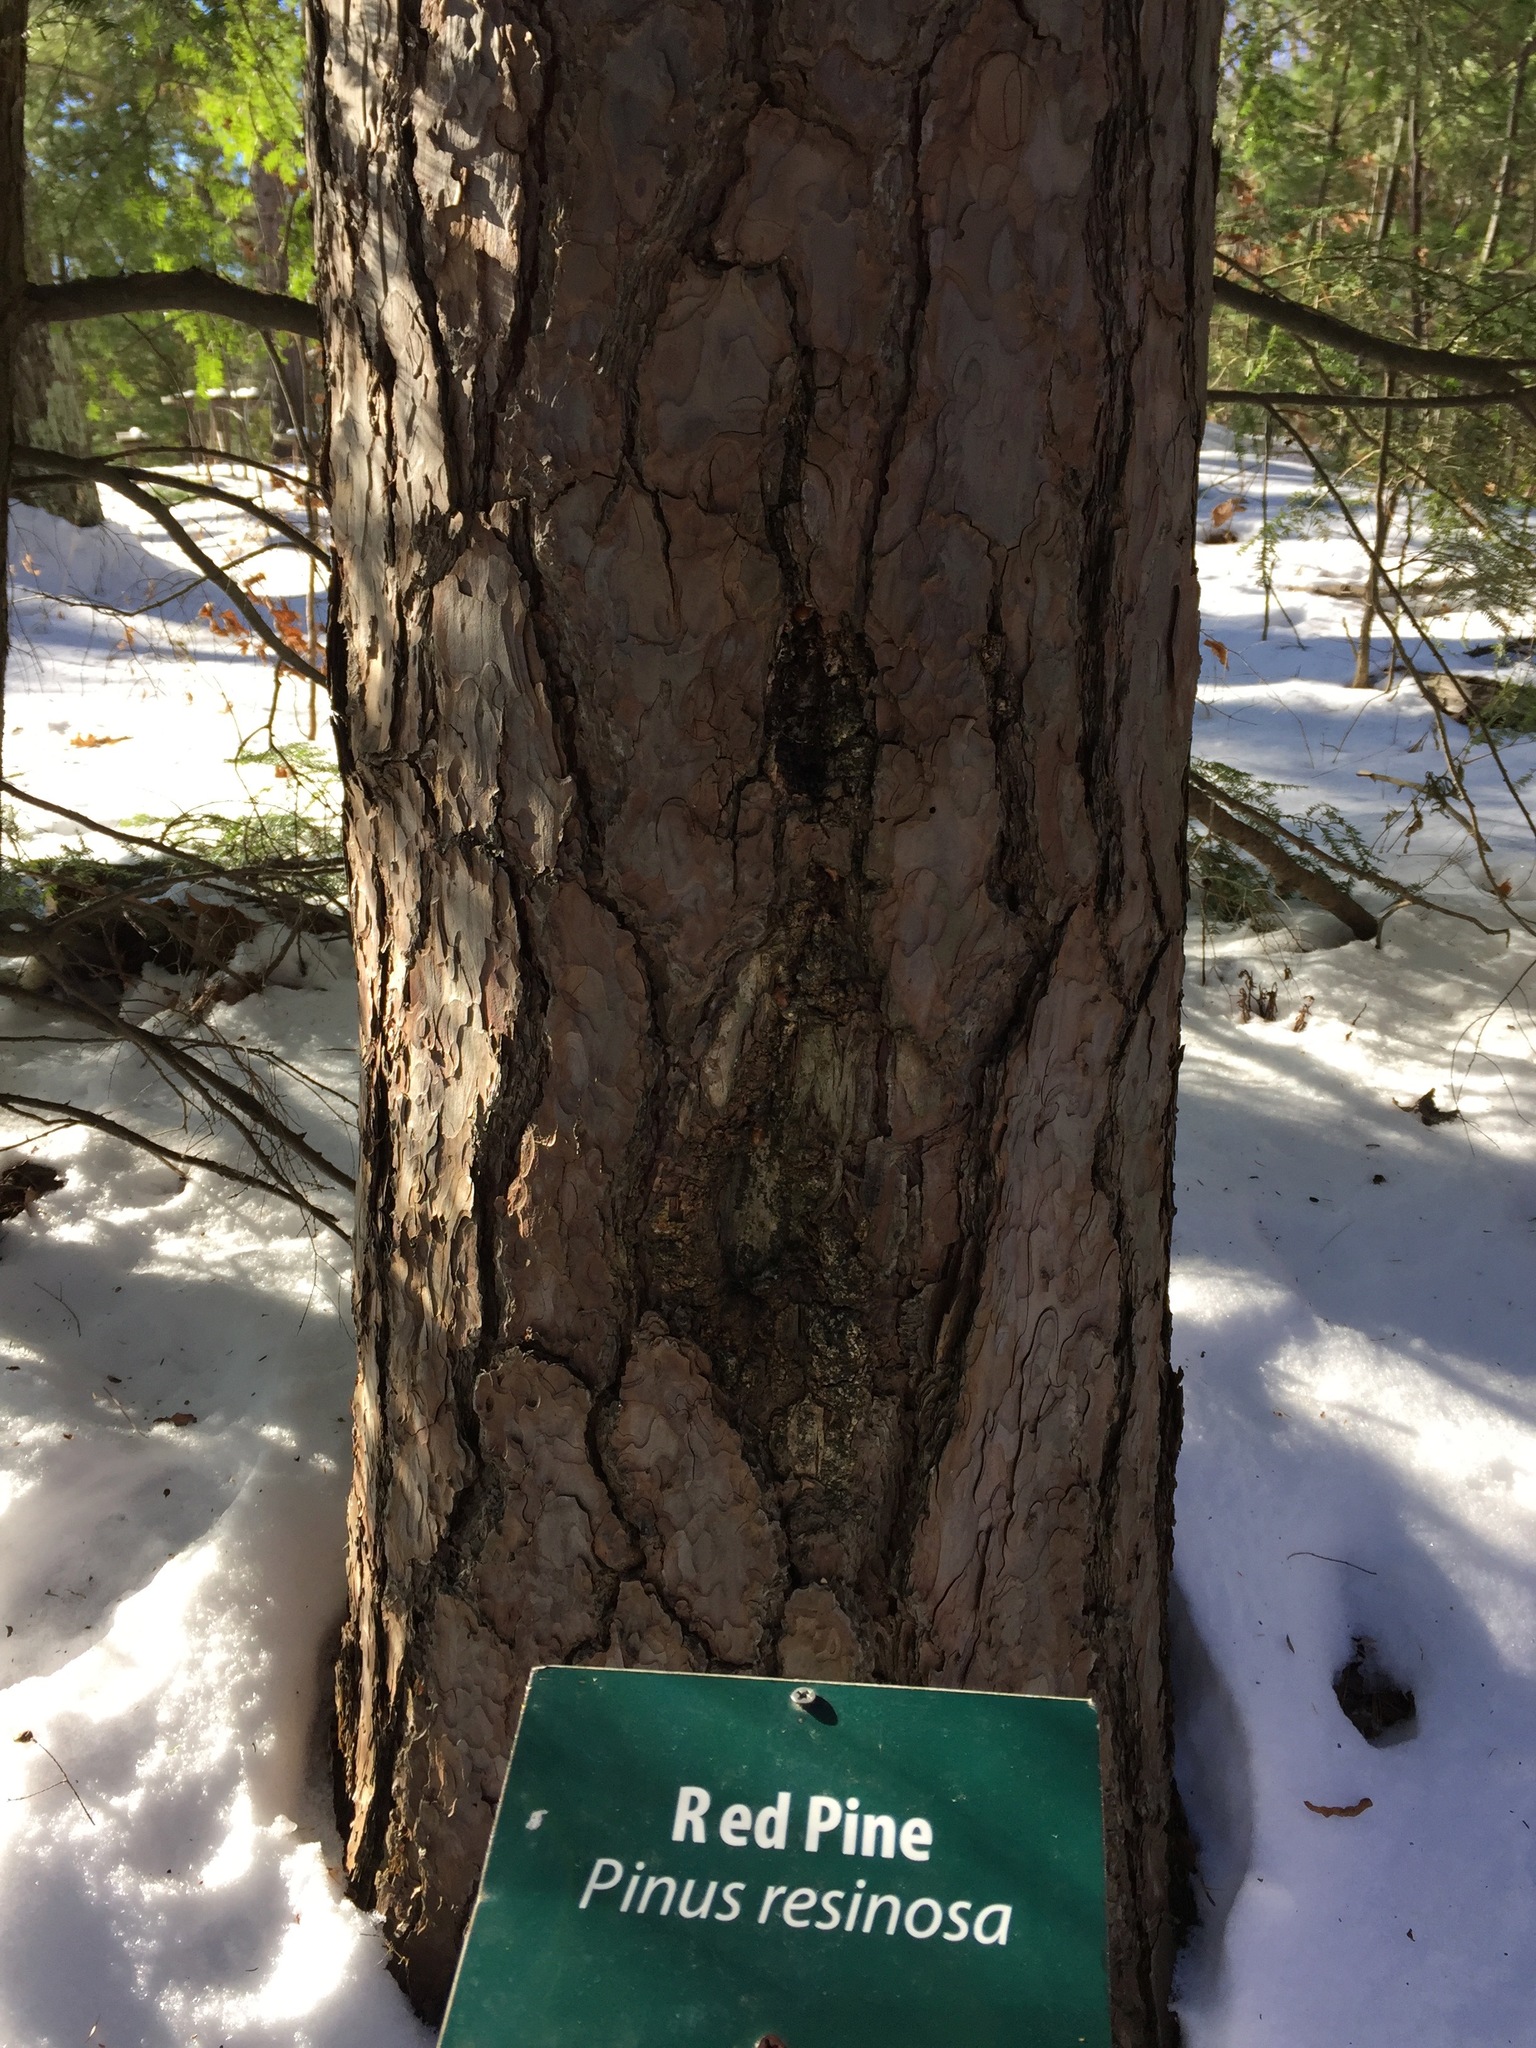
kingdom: Plantae
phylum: Tracheophyta
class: Pinopsida
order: Pinales
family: Pinaceae
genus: Pinus
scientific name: Pinus resinosa
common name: Norway pine
